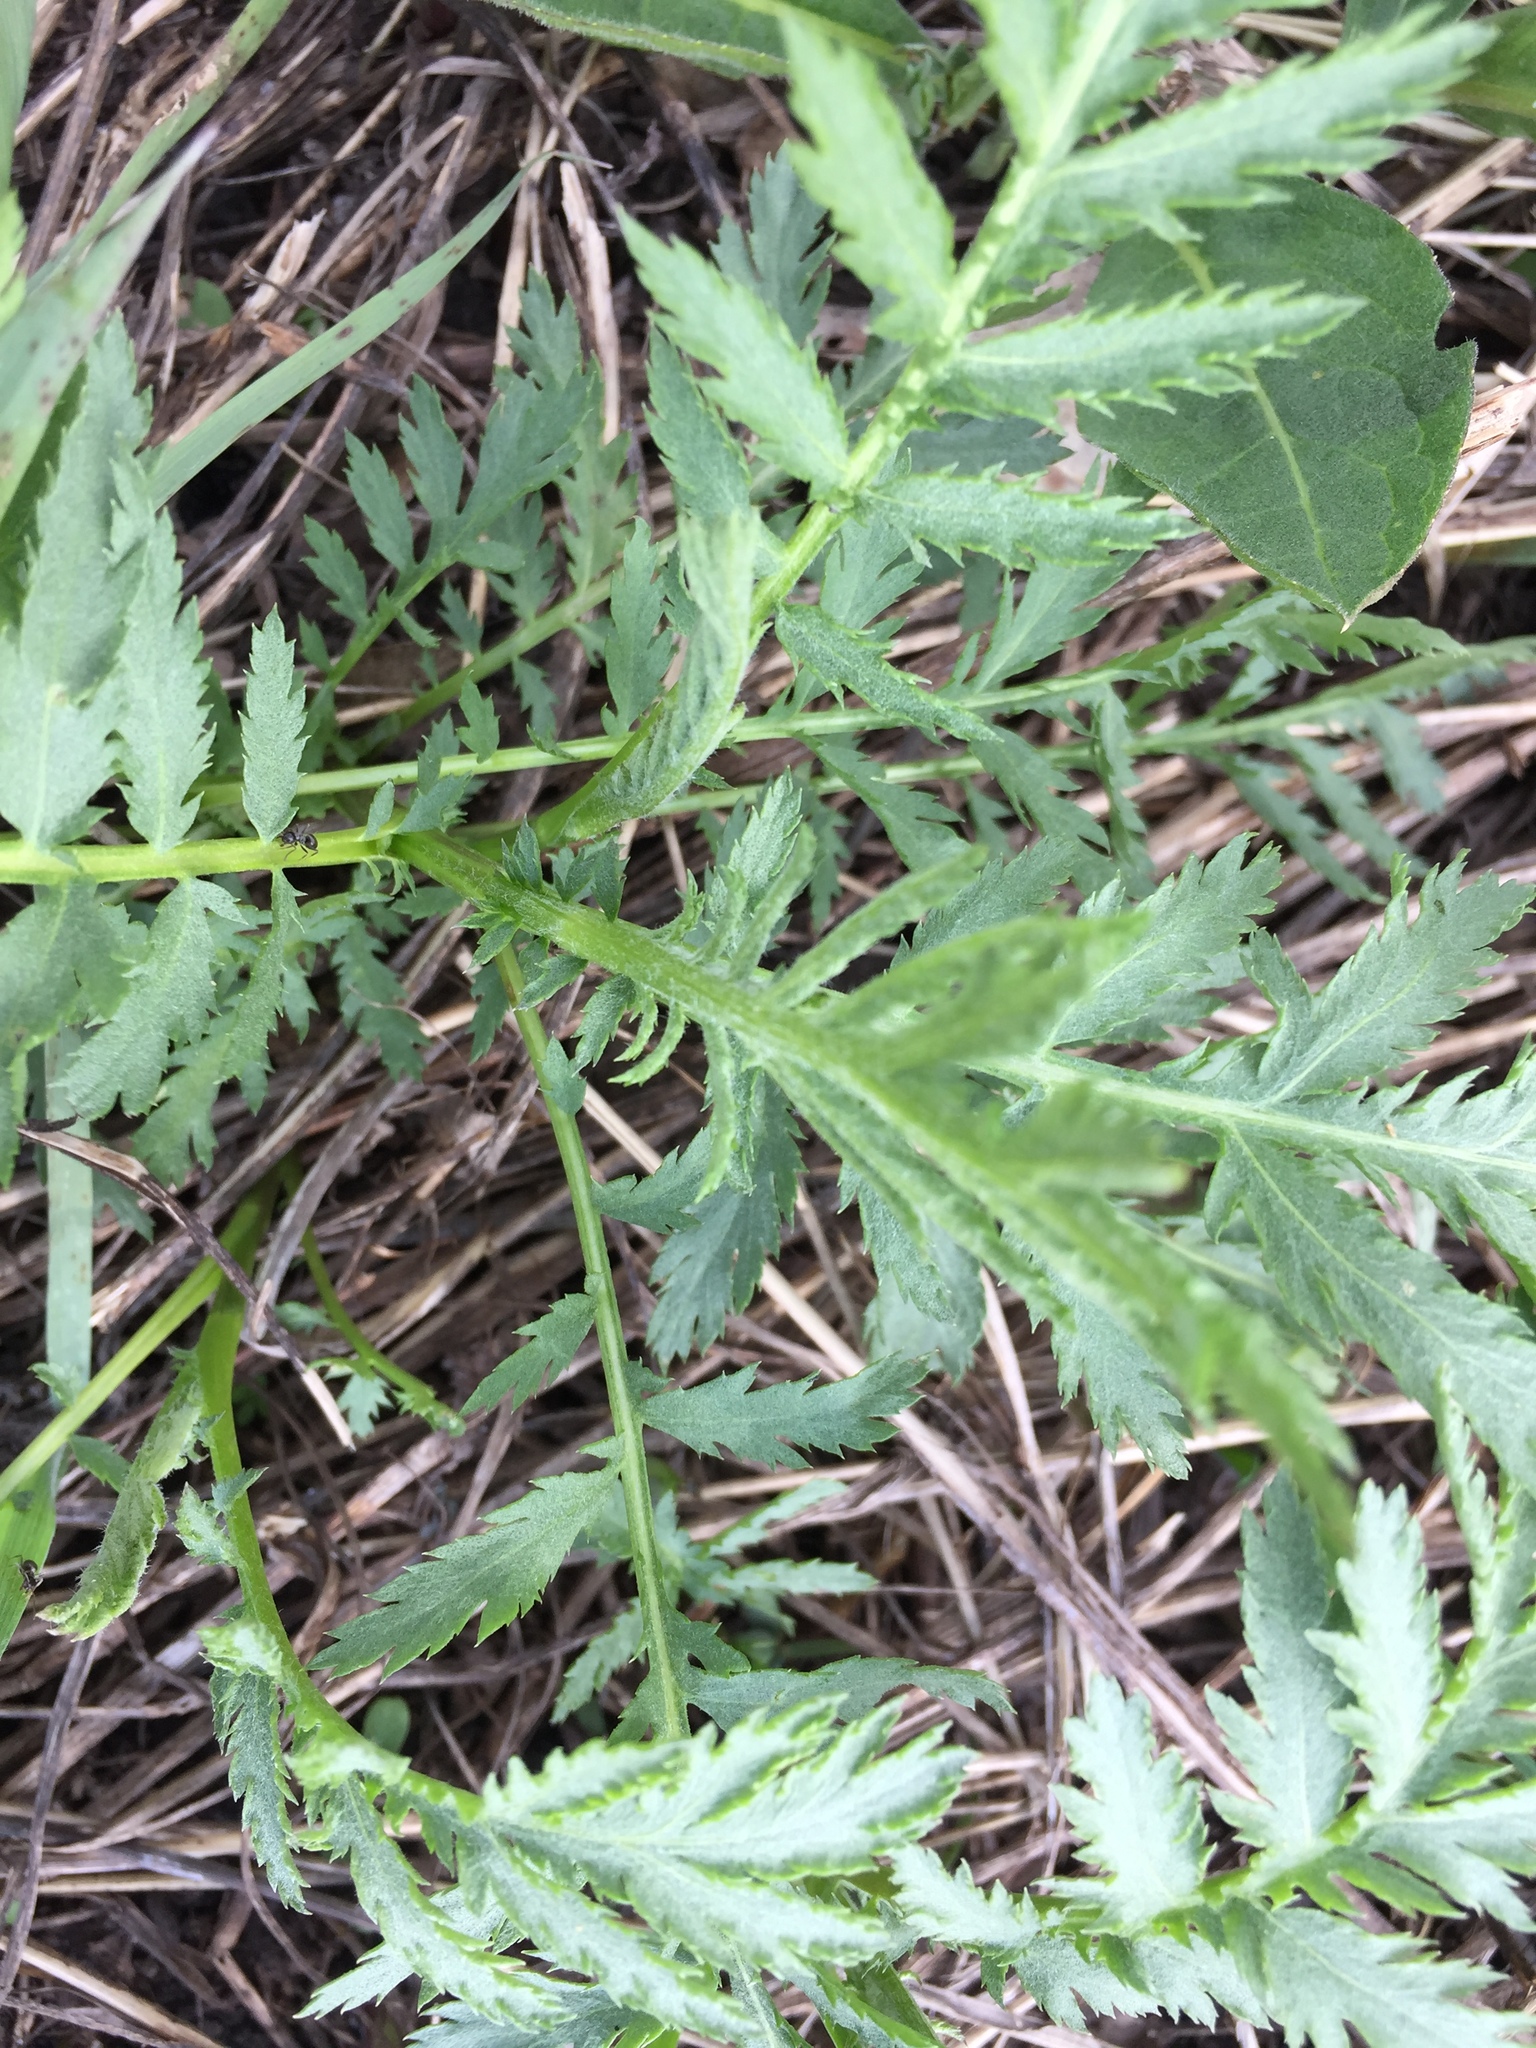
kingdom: Plantae
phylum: Tracheophyta
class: Magnoliopsida
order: Asterales
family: Asteraceae
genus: Tanacetum
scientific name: Tanacetum vulgare
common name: Common tansy
